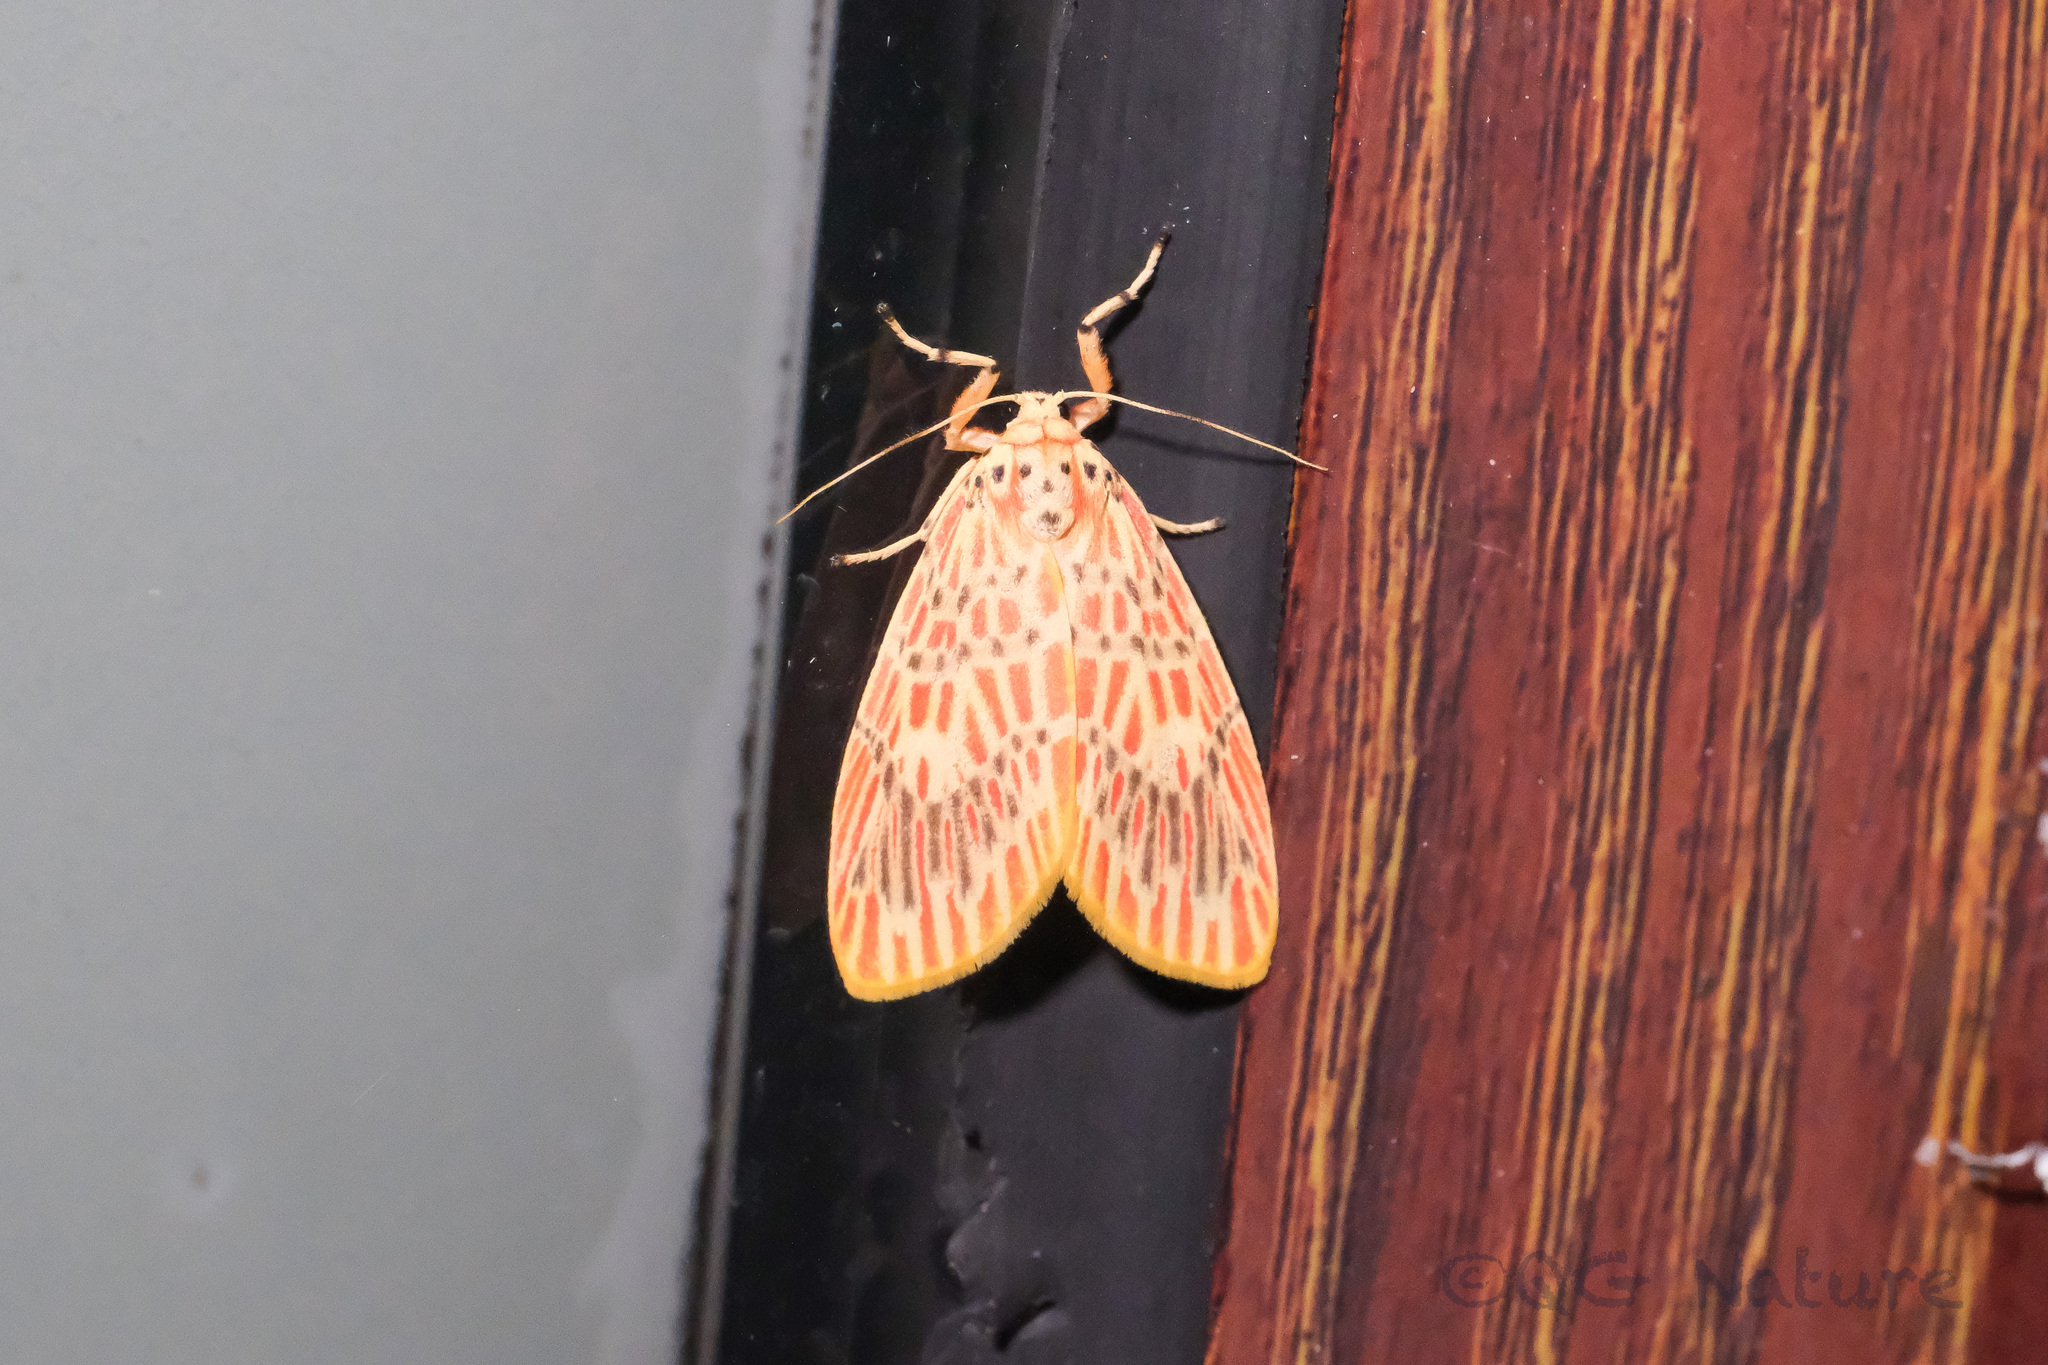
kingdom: Animalia
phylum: Arthropoda
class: Insecta
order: Lepidoptera
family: Erebidae
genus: Barsine
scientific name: Barsine orientalis
